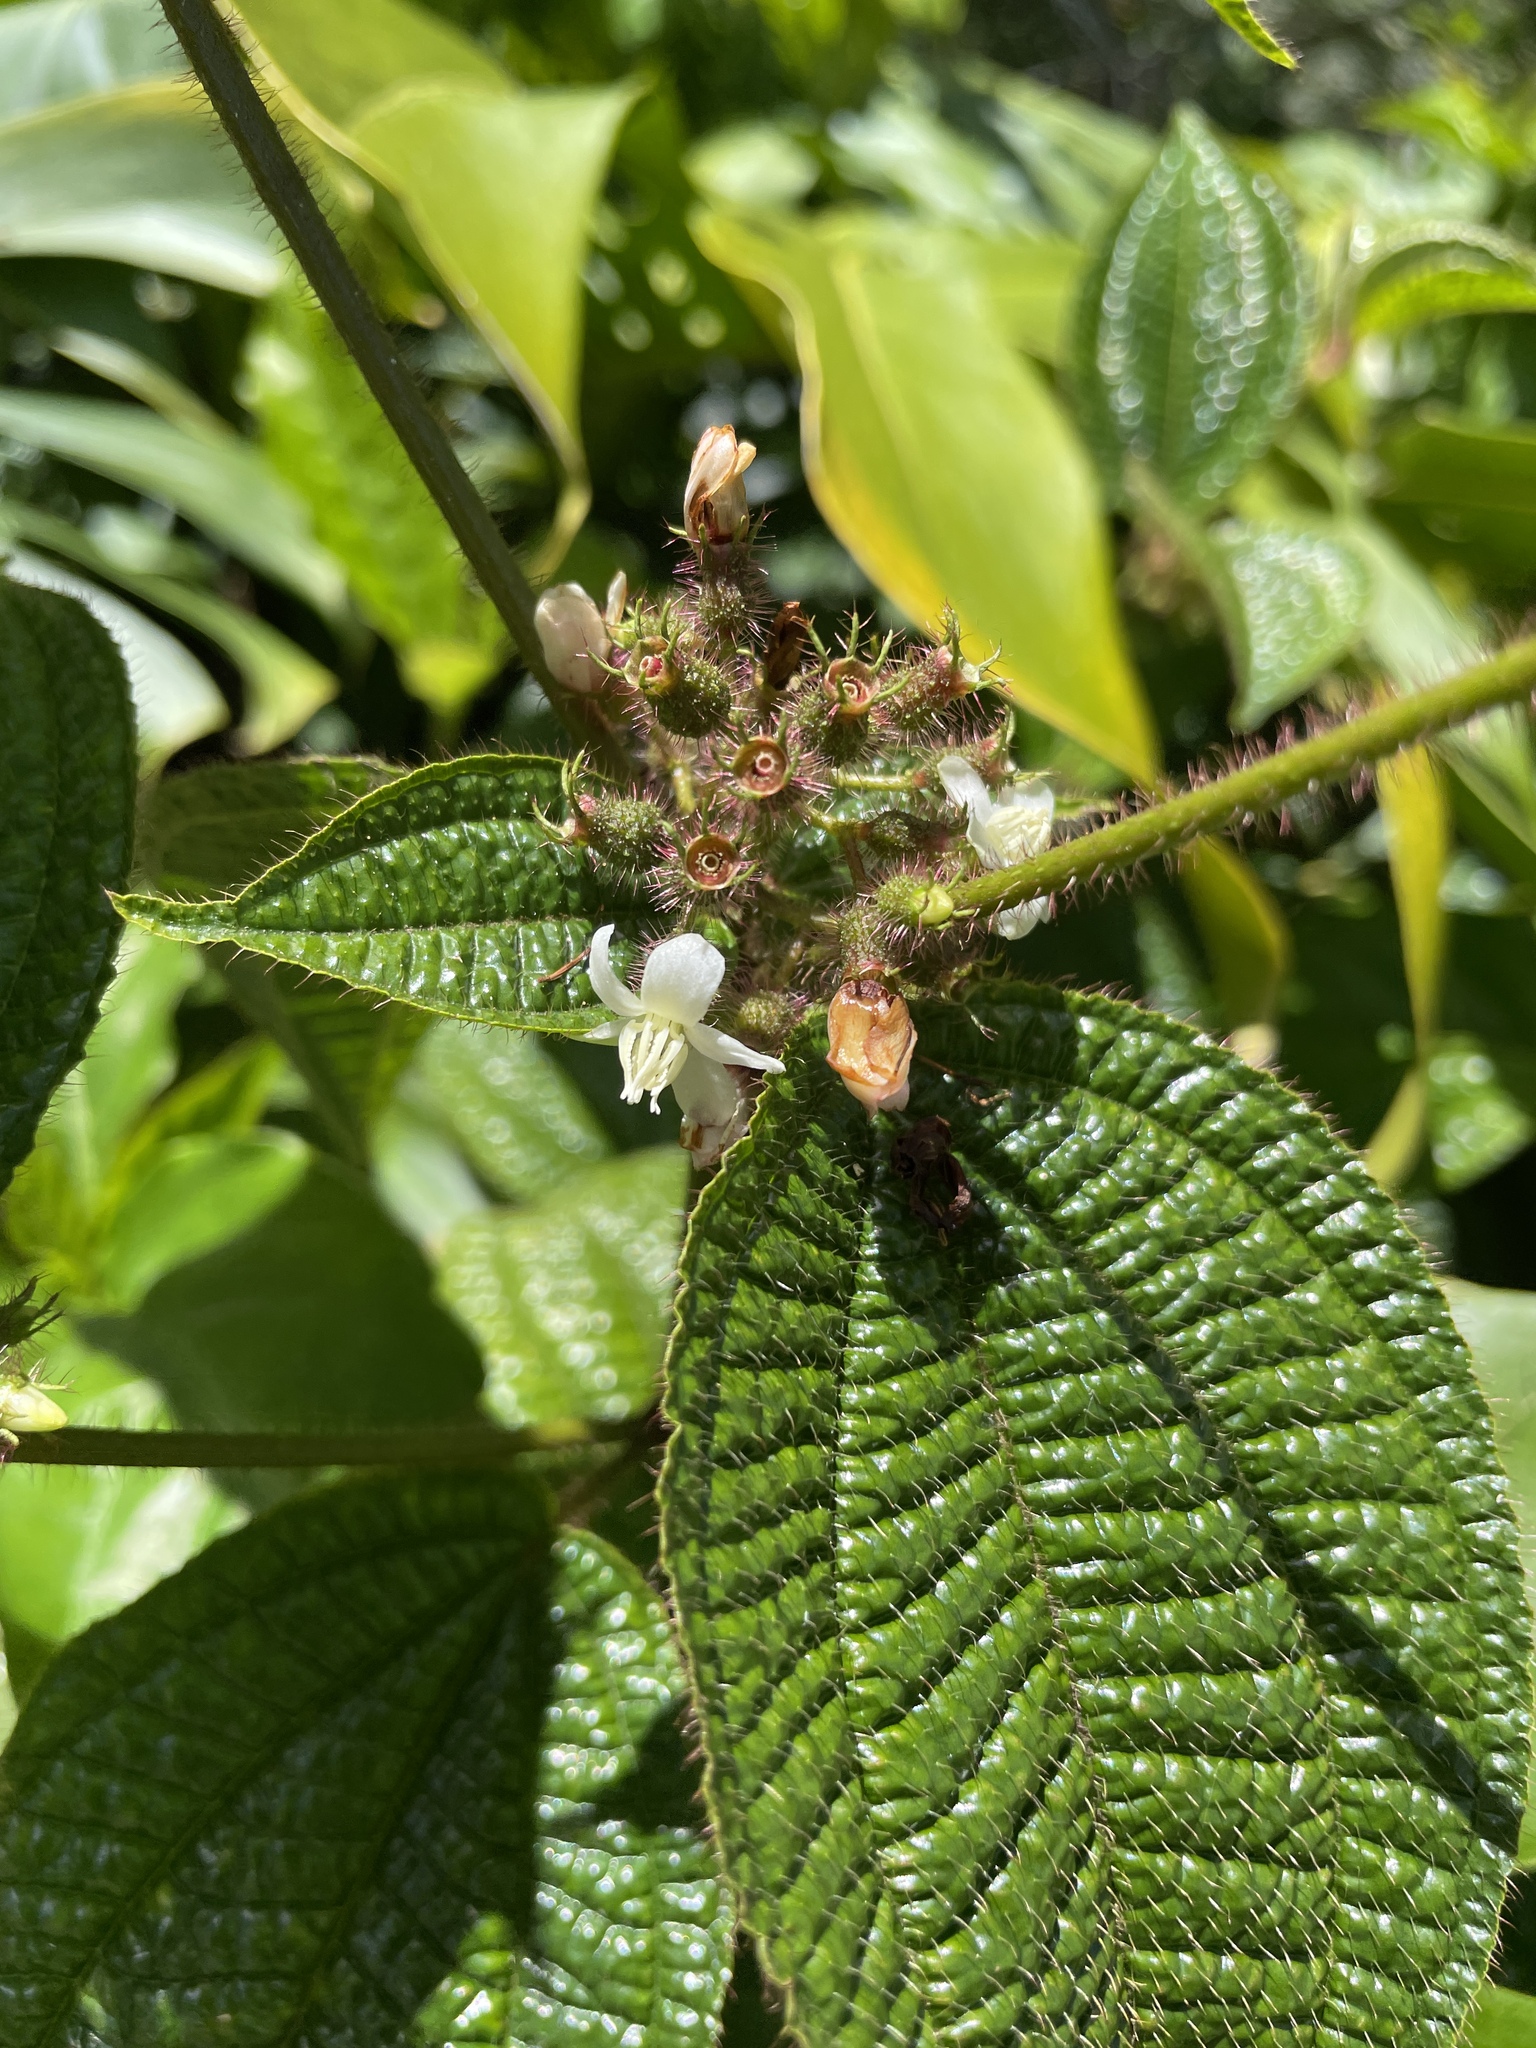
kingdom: Plantae
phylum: Tracheophyta
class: Magnoliopsida
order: Myrtales
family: Melastomataceae
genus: Miconia
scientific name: Miconia crenata
